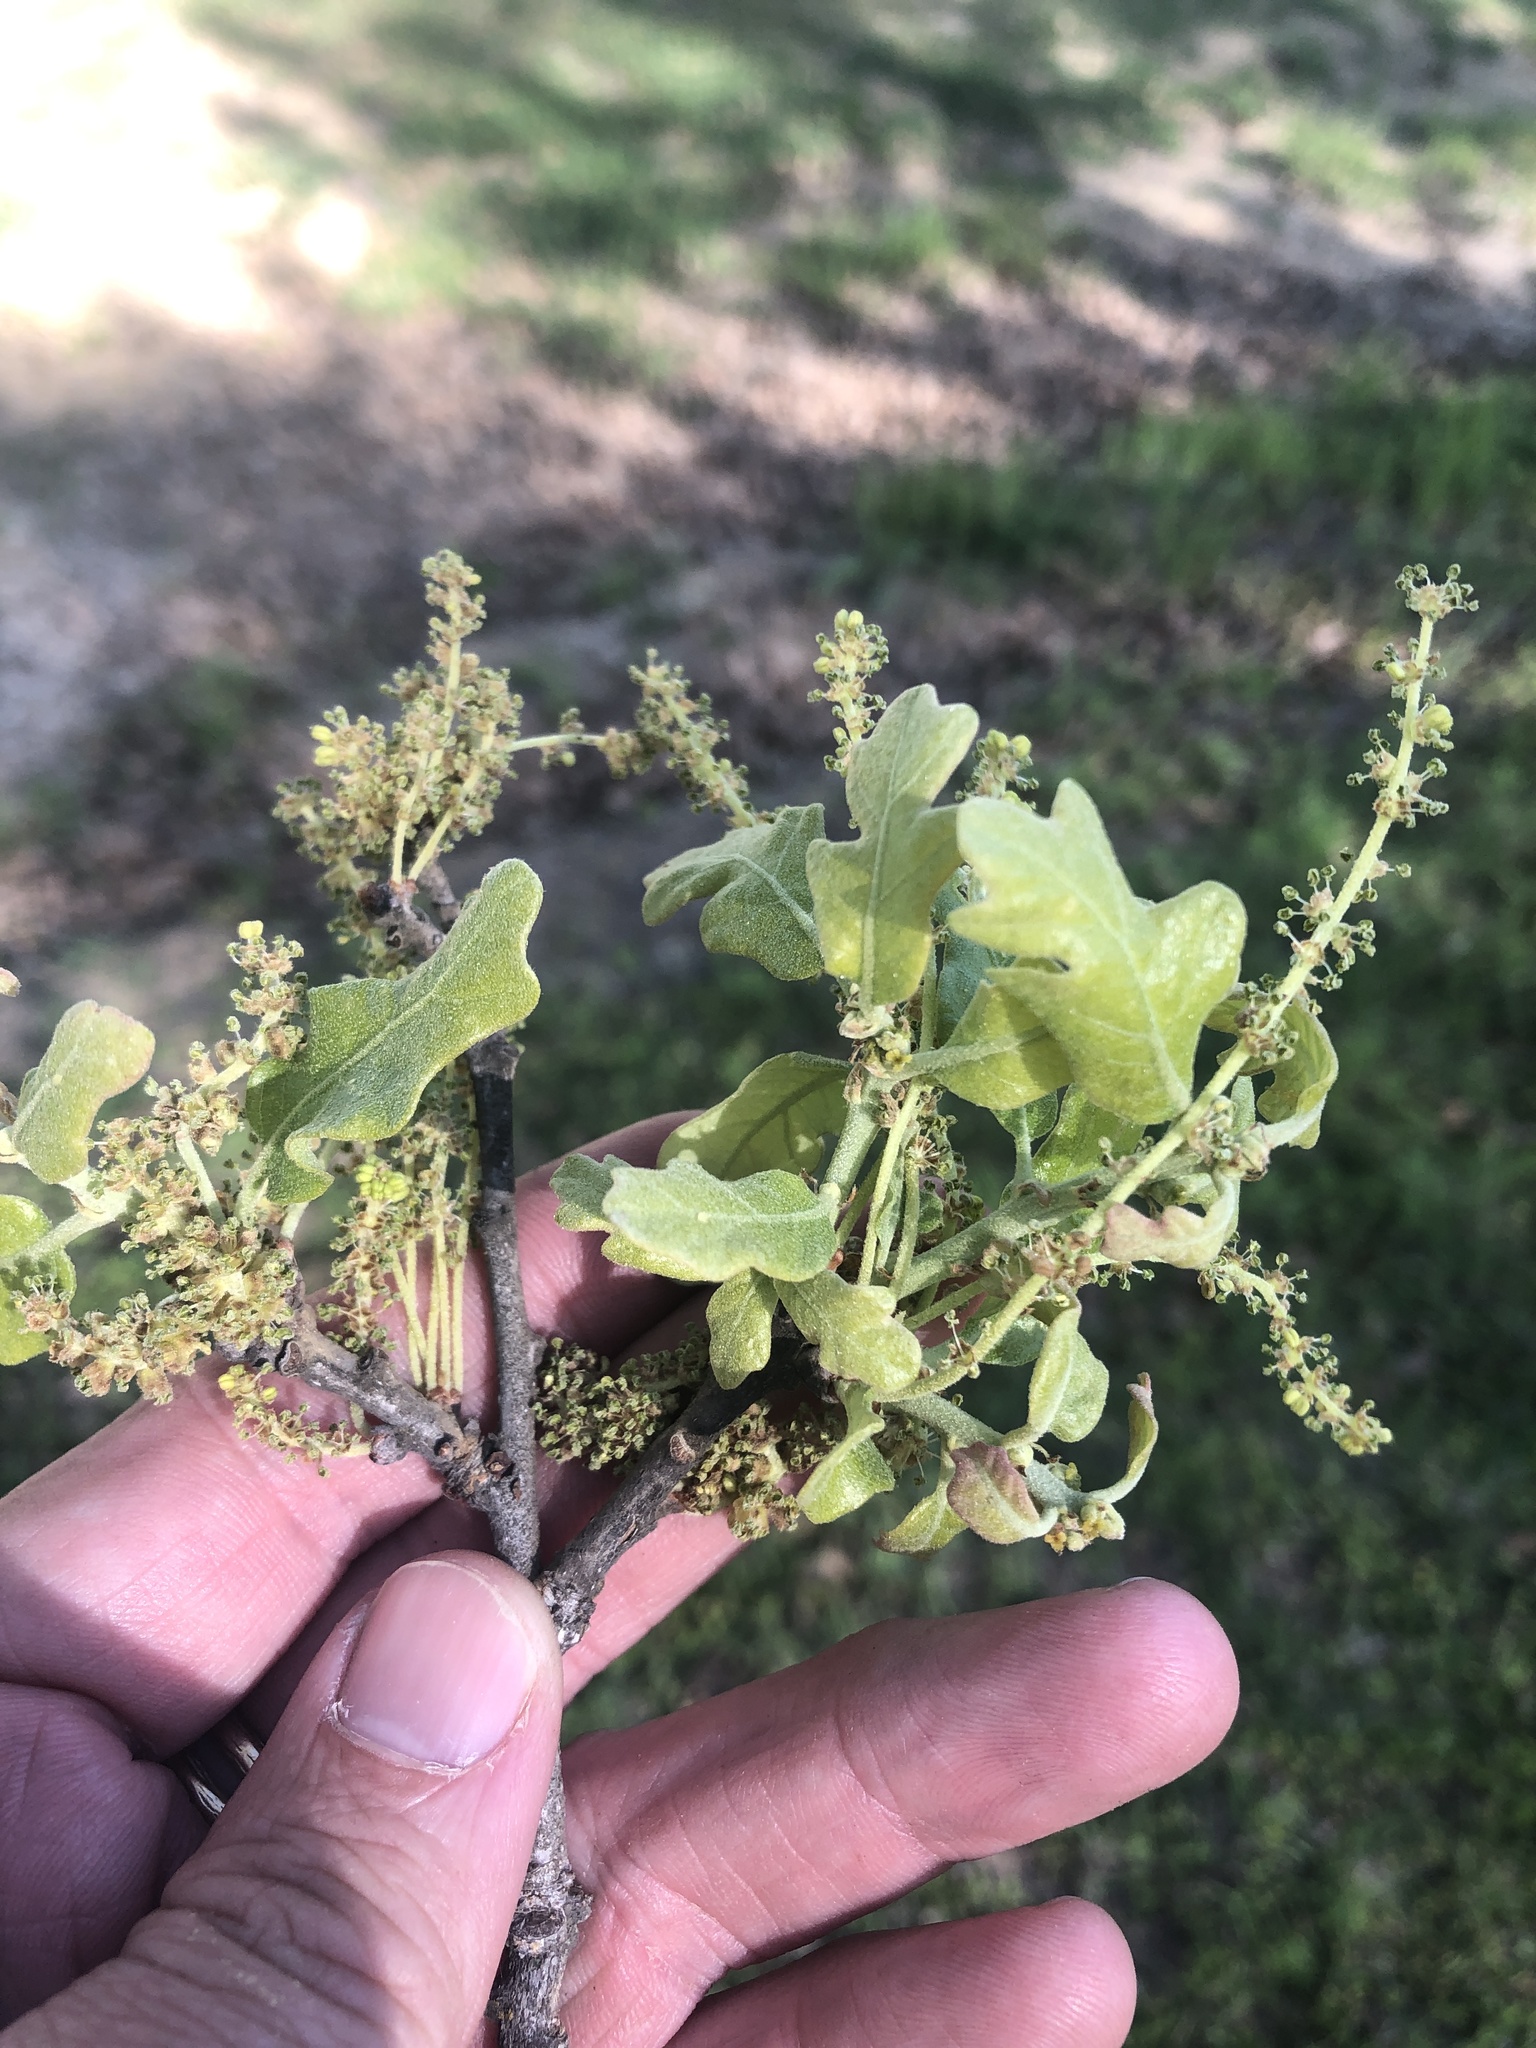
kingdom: Plantae
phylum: Tracheophyta
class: Magnoliopsida
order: Fagales
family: Fagaceae
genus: Quercus
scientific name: Quercus stellata
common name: Post oak
